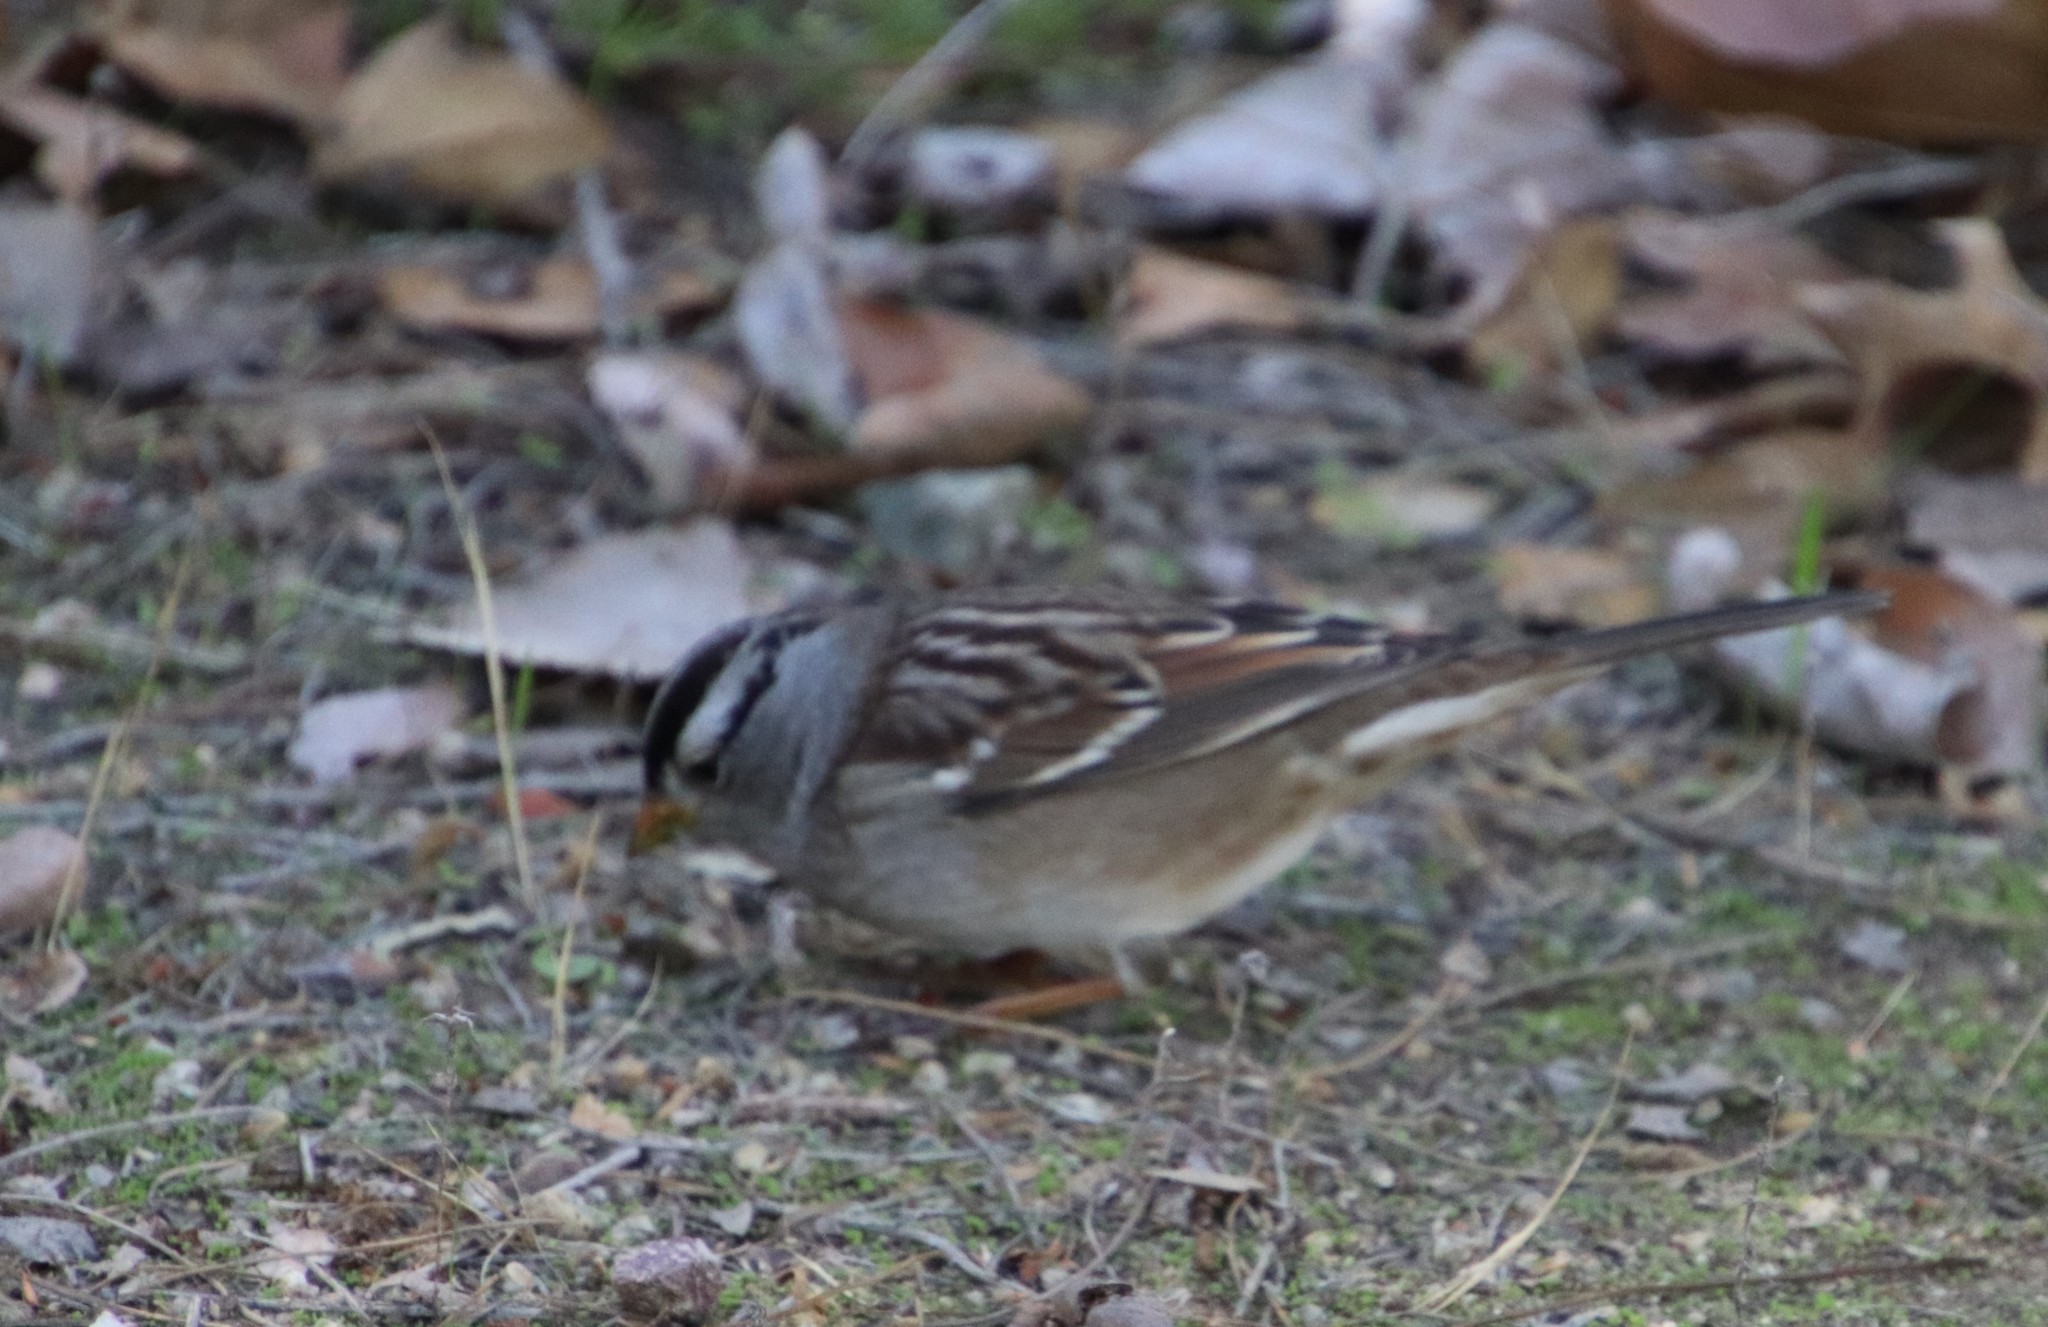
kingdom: Animalia
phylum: Chordata
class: Aves
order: Passeriformes
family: Passerellidae
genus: Zonotrichia
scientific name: Zonotrichia leucophrys
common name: White-crowned sparrow
